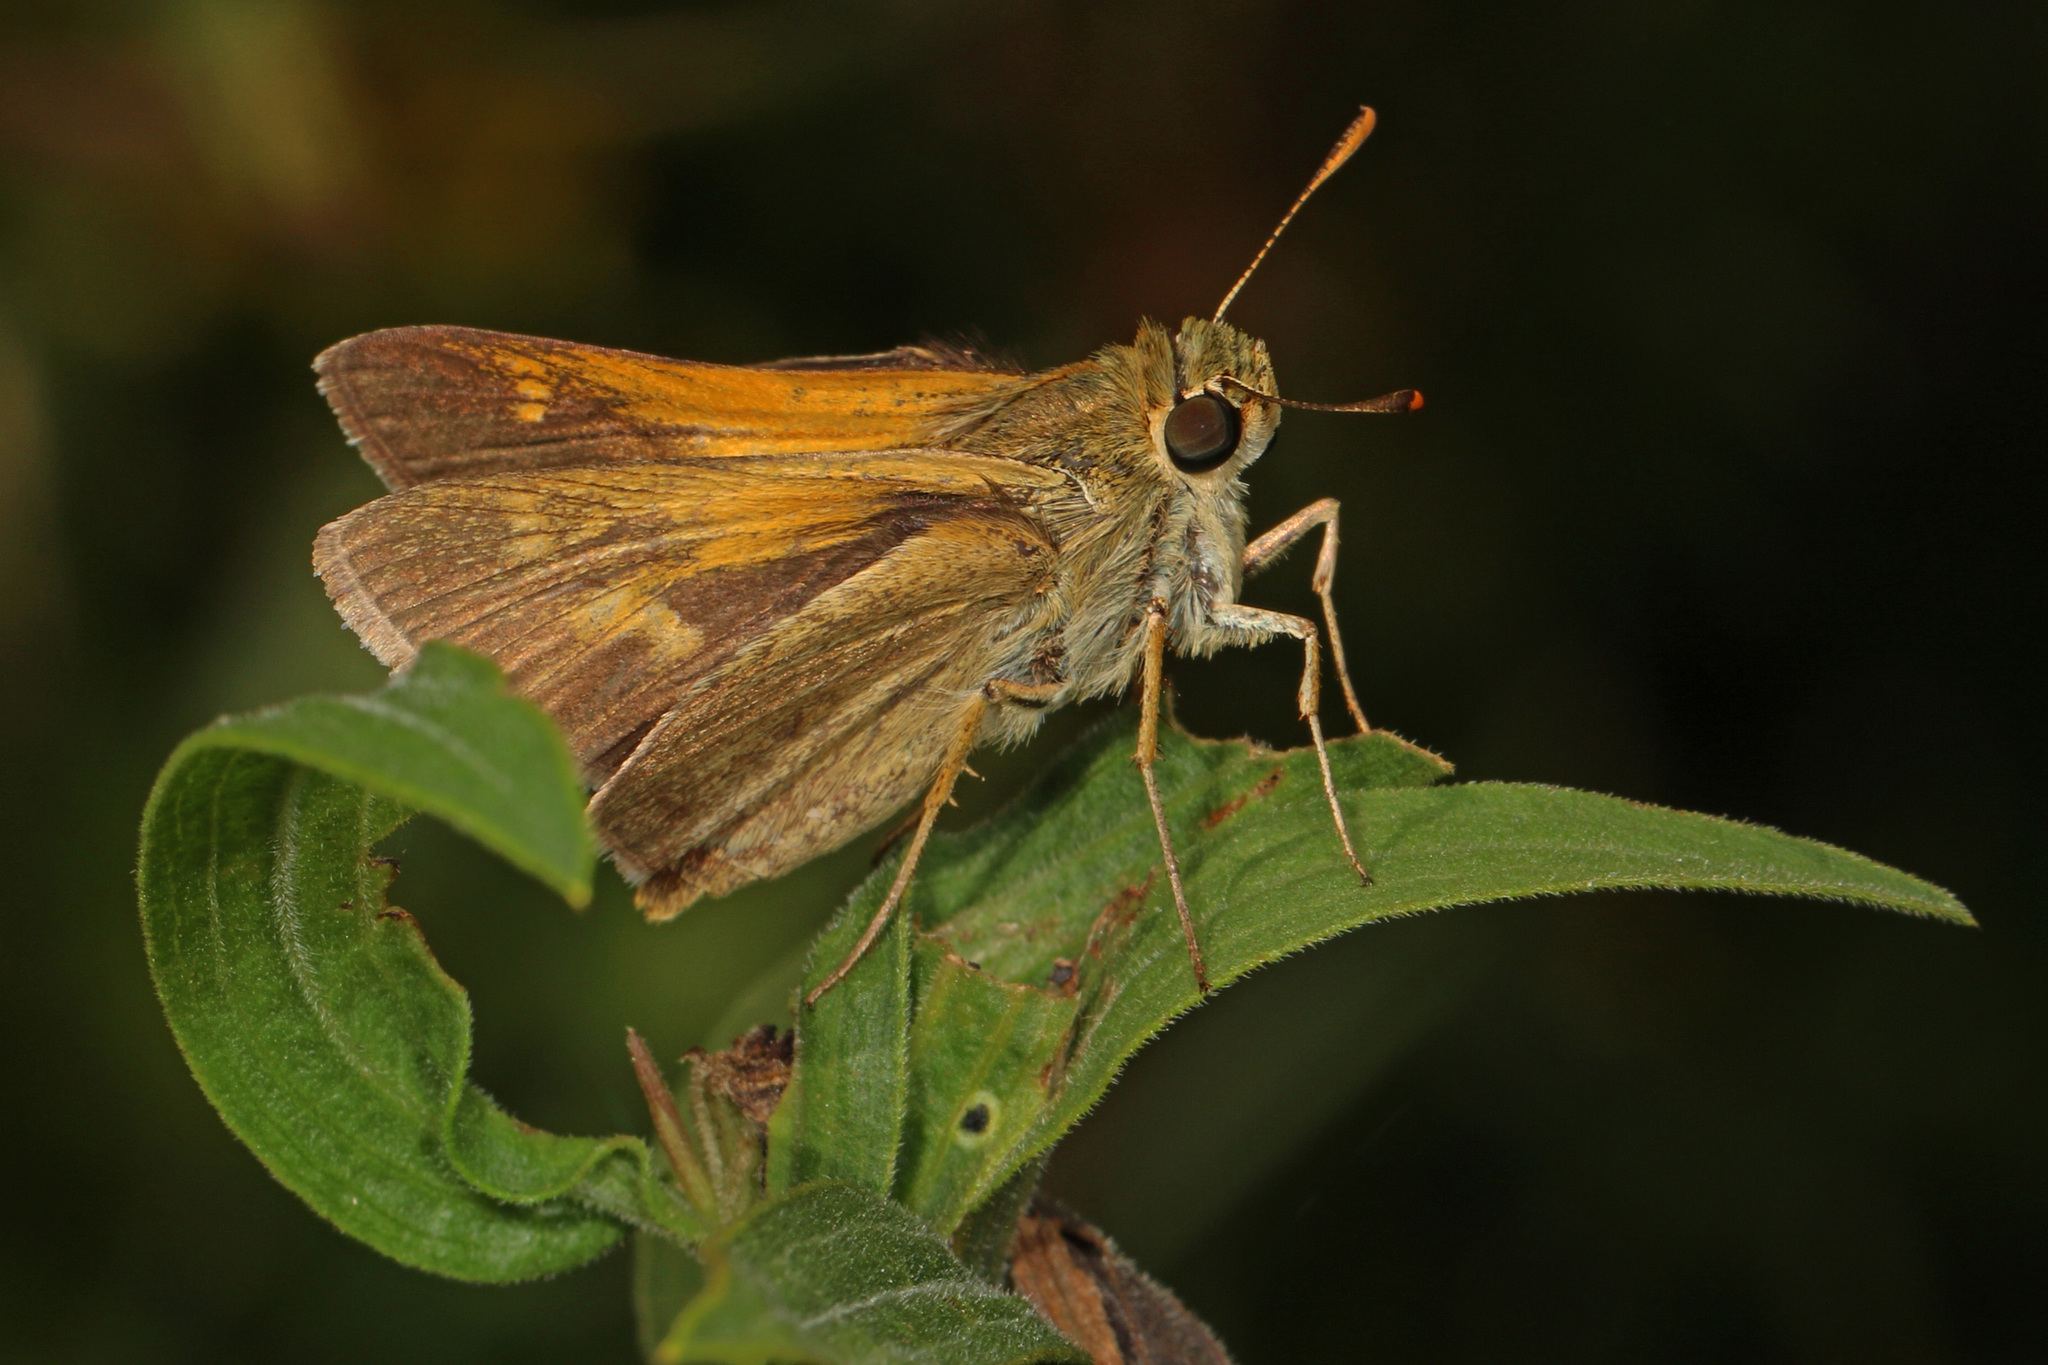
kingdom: Animalia
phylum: Arthropoda
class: Insecta
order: Lepidoptera
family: Hesperiidae
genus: Polites
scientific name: Polites themistocles
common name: Tawny-edged skipper
